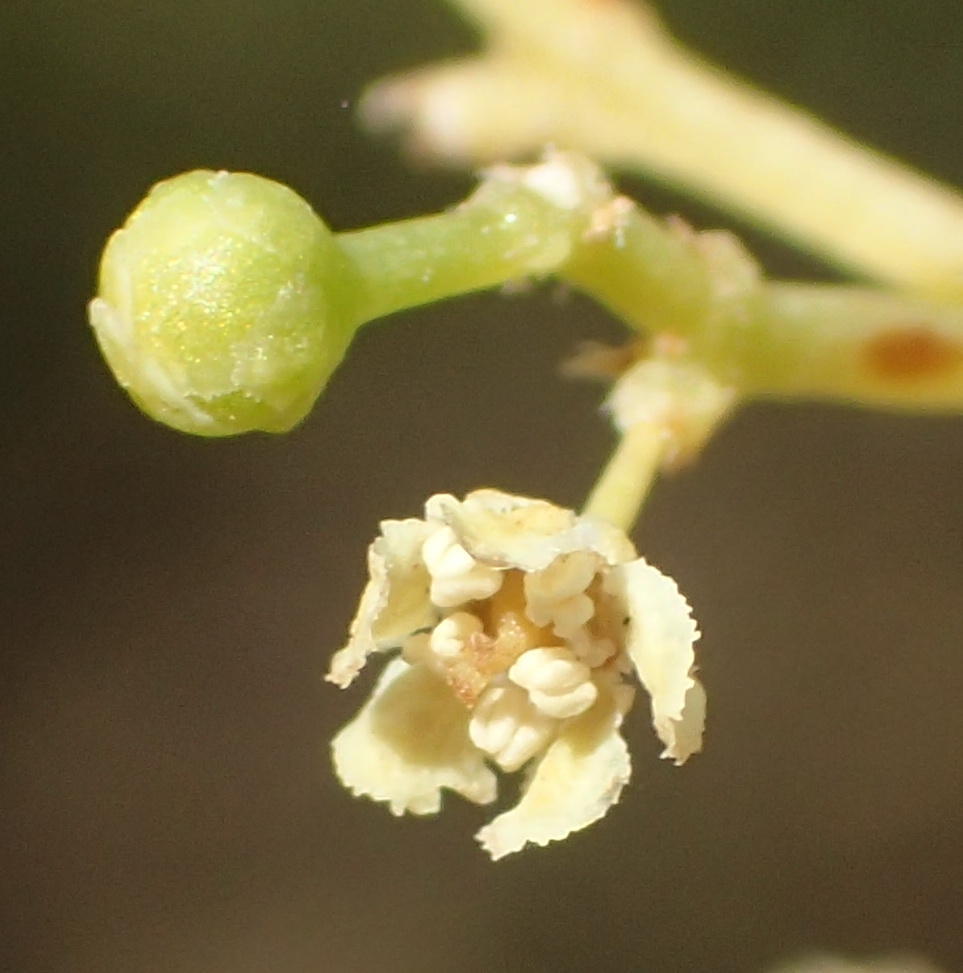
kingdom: Plantae
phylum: Tracheophyta
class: Magnoliopsida
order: Celastrales
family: Celastraceae
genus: Gymnosporia
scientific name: Gymnosporia linearis
